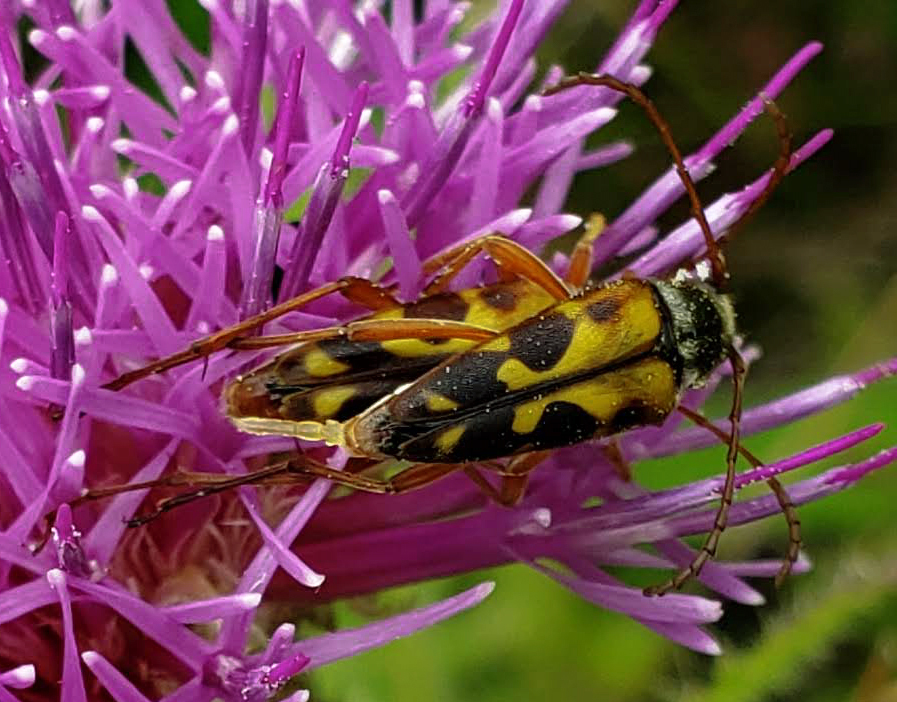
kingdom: Animalia
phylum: Arthropoda
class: Insecta
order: Coleoptera
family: Cerambycidae
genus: Typocerus
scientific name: Typocerus octonotatus
